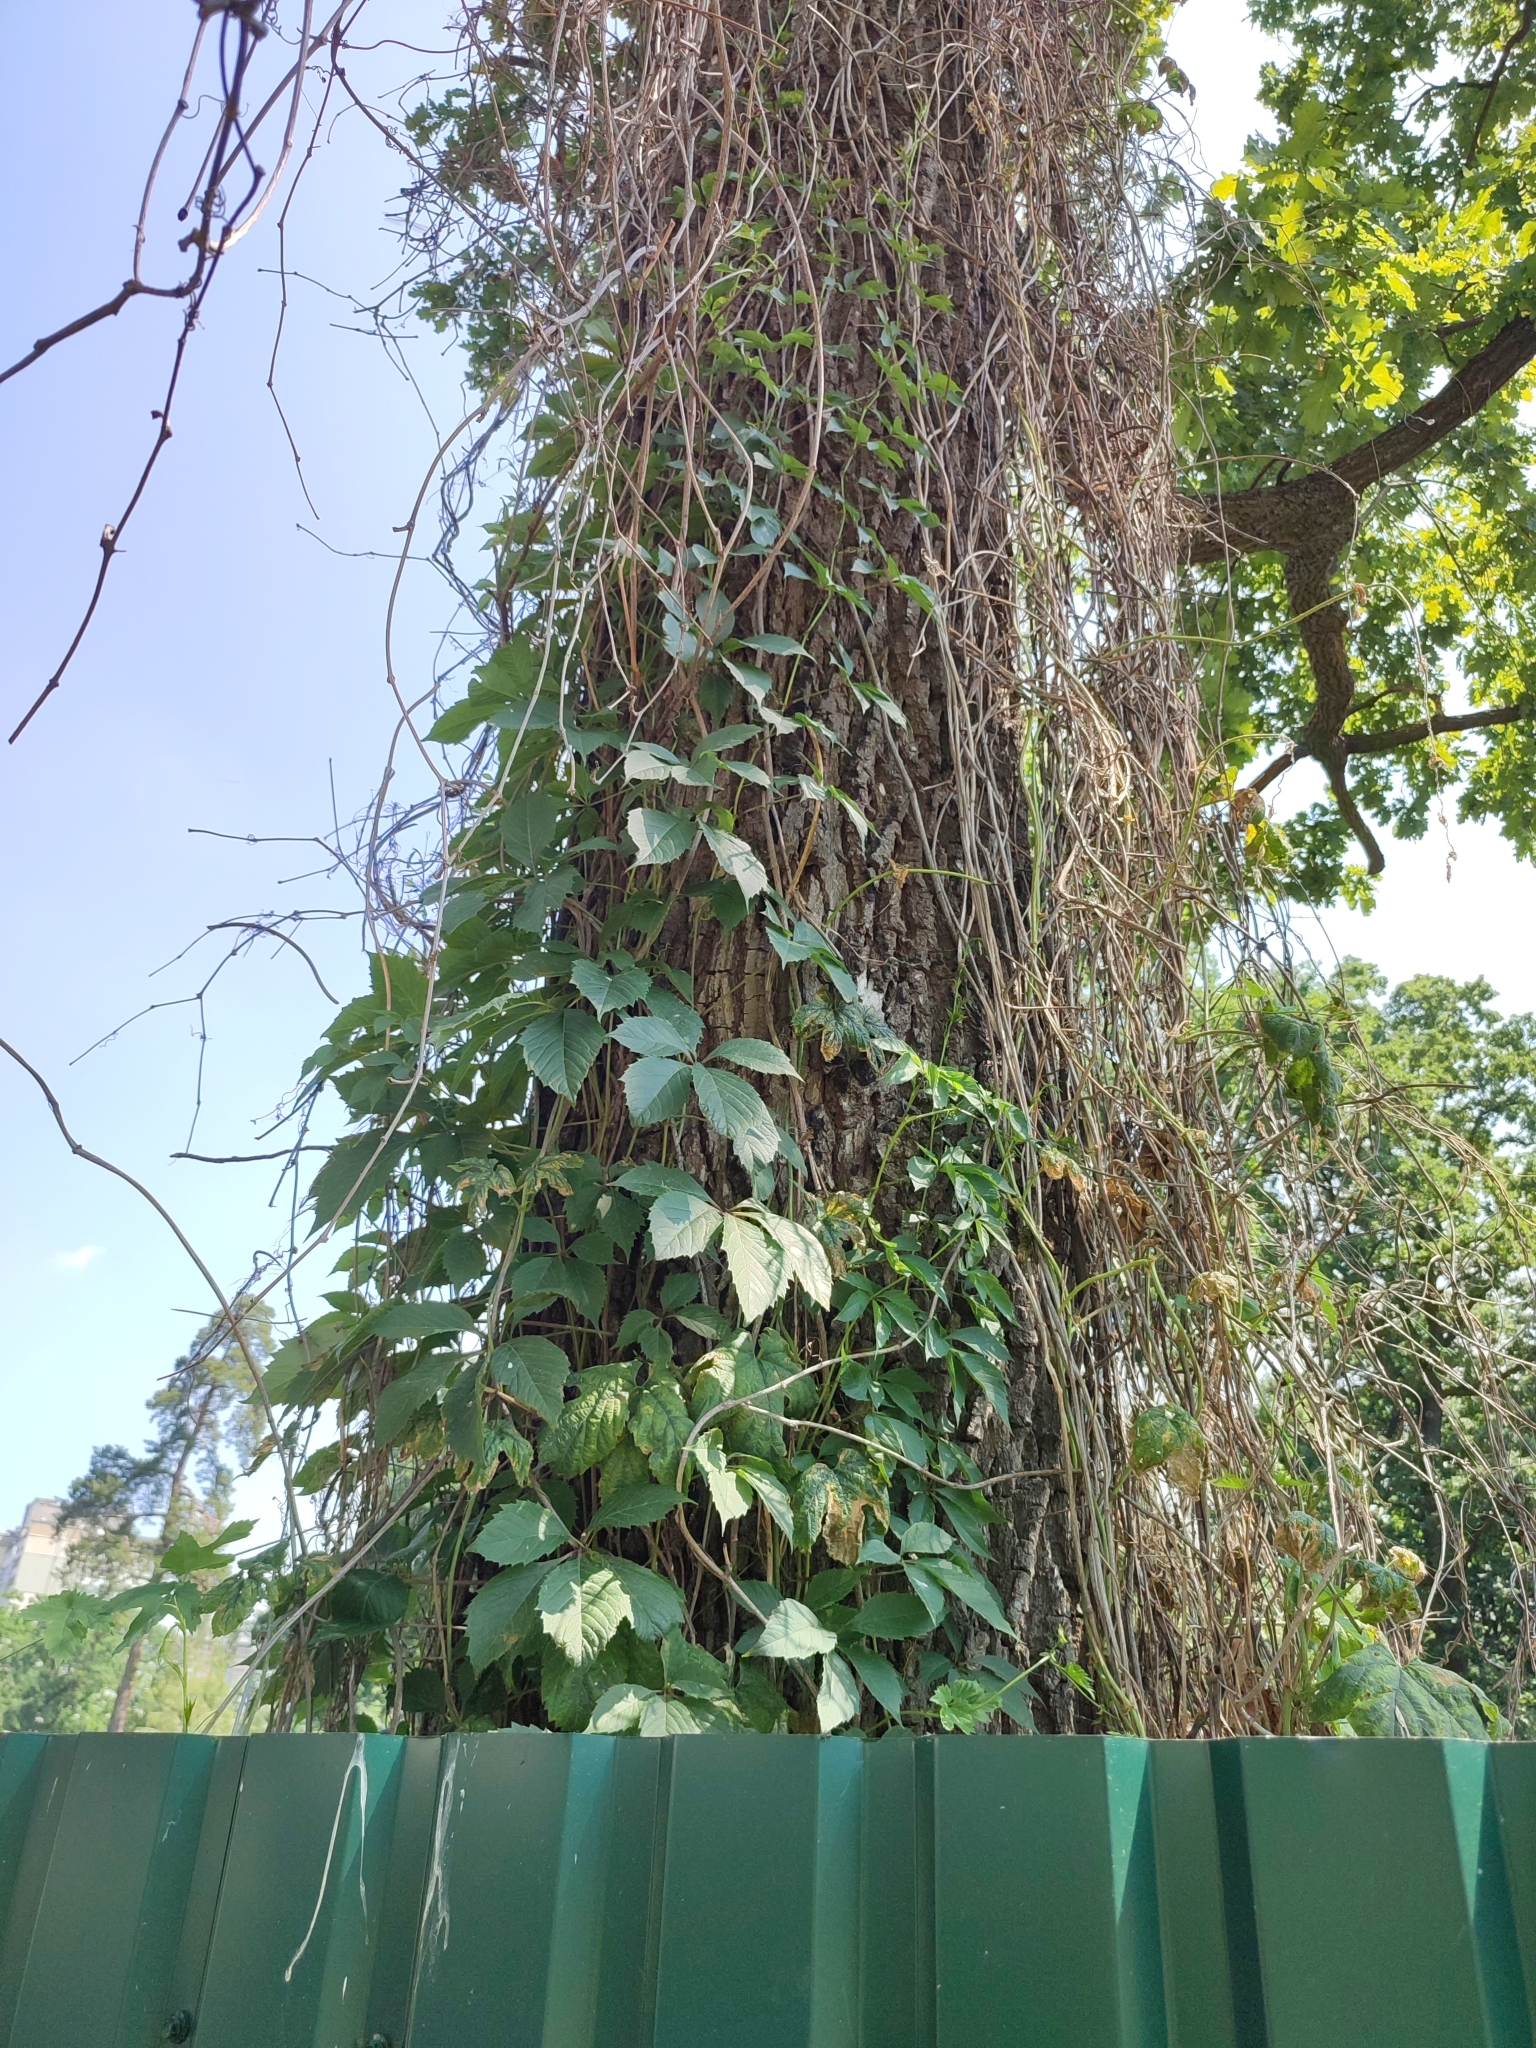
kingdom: Plantae
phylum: Tracheophyta
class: Magnoliopsida
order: Vitales
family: Vitaceae
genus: Parthenocissus
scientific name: Parthenocissus inserta
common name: False virginia-creeper
